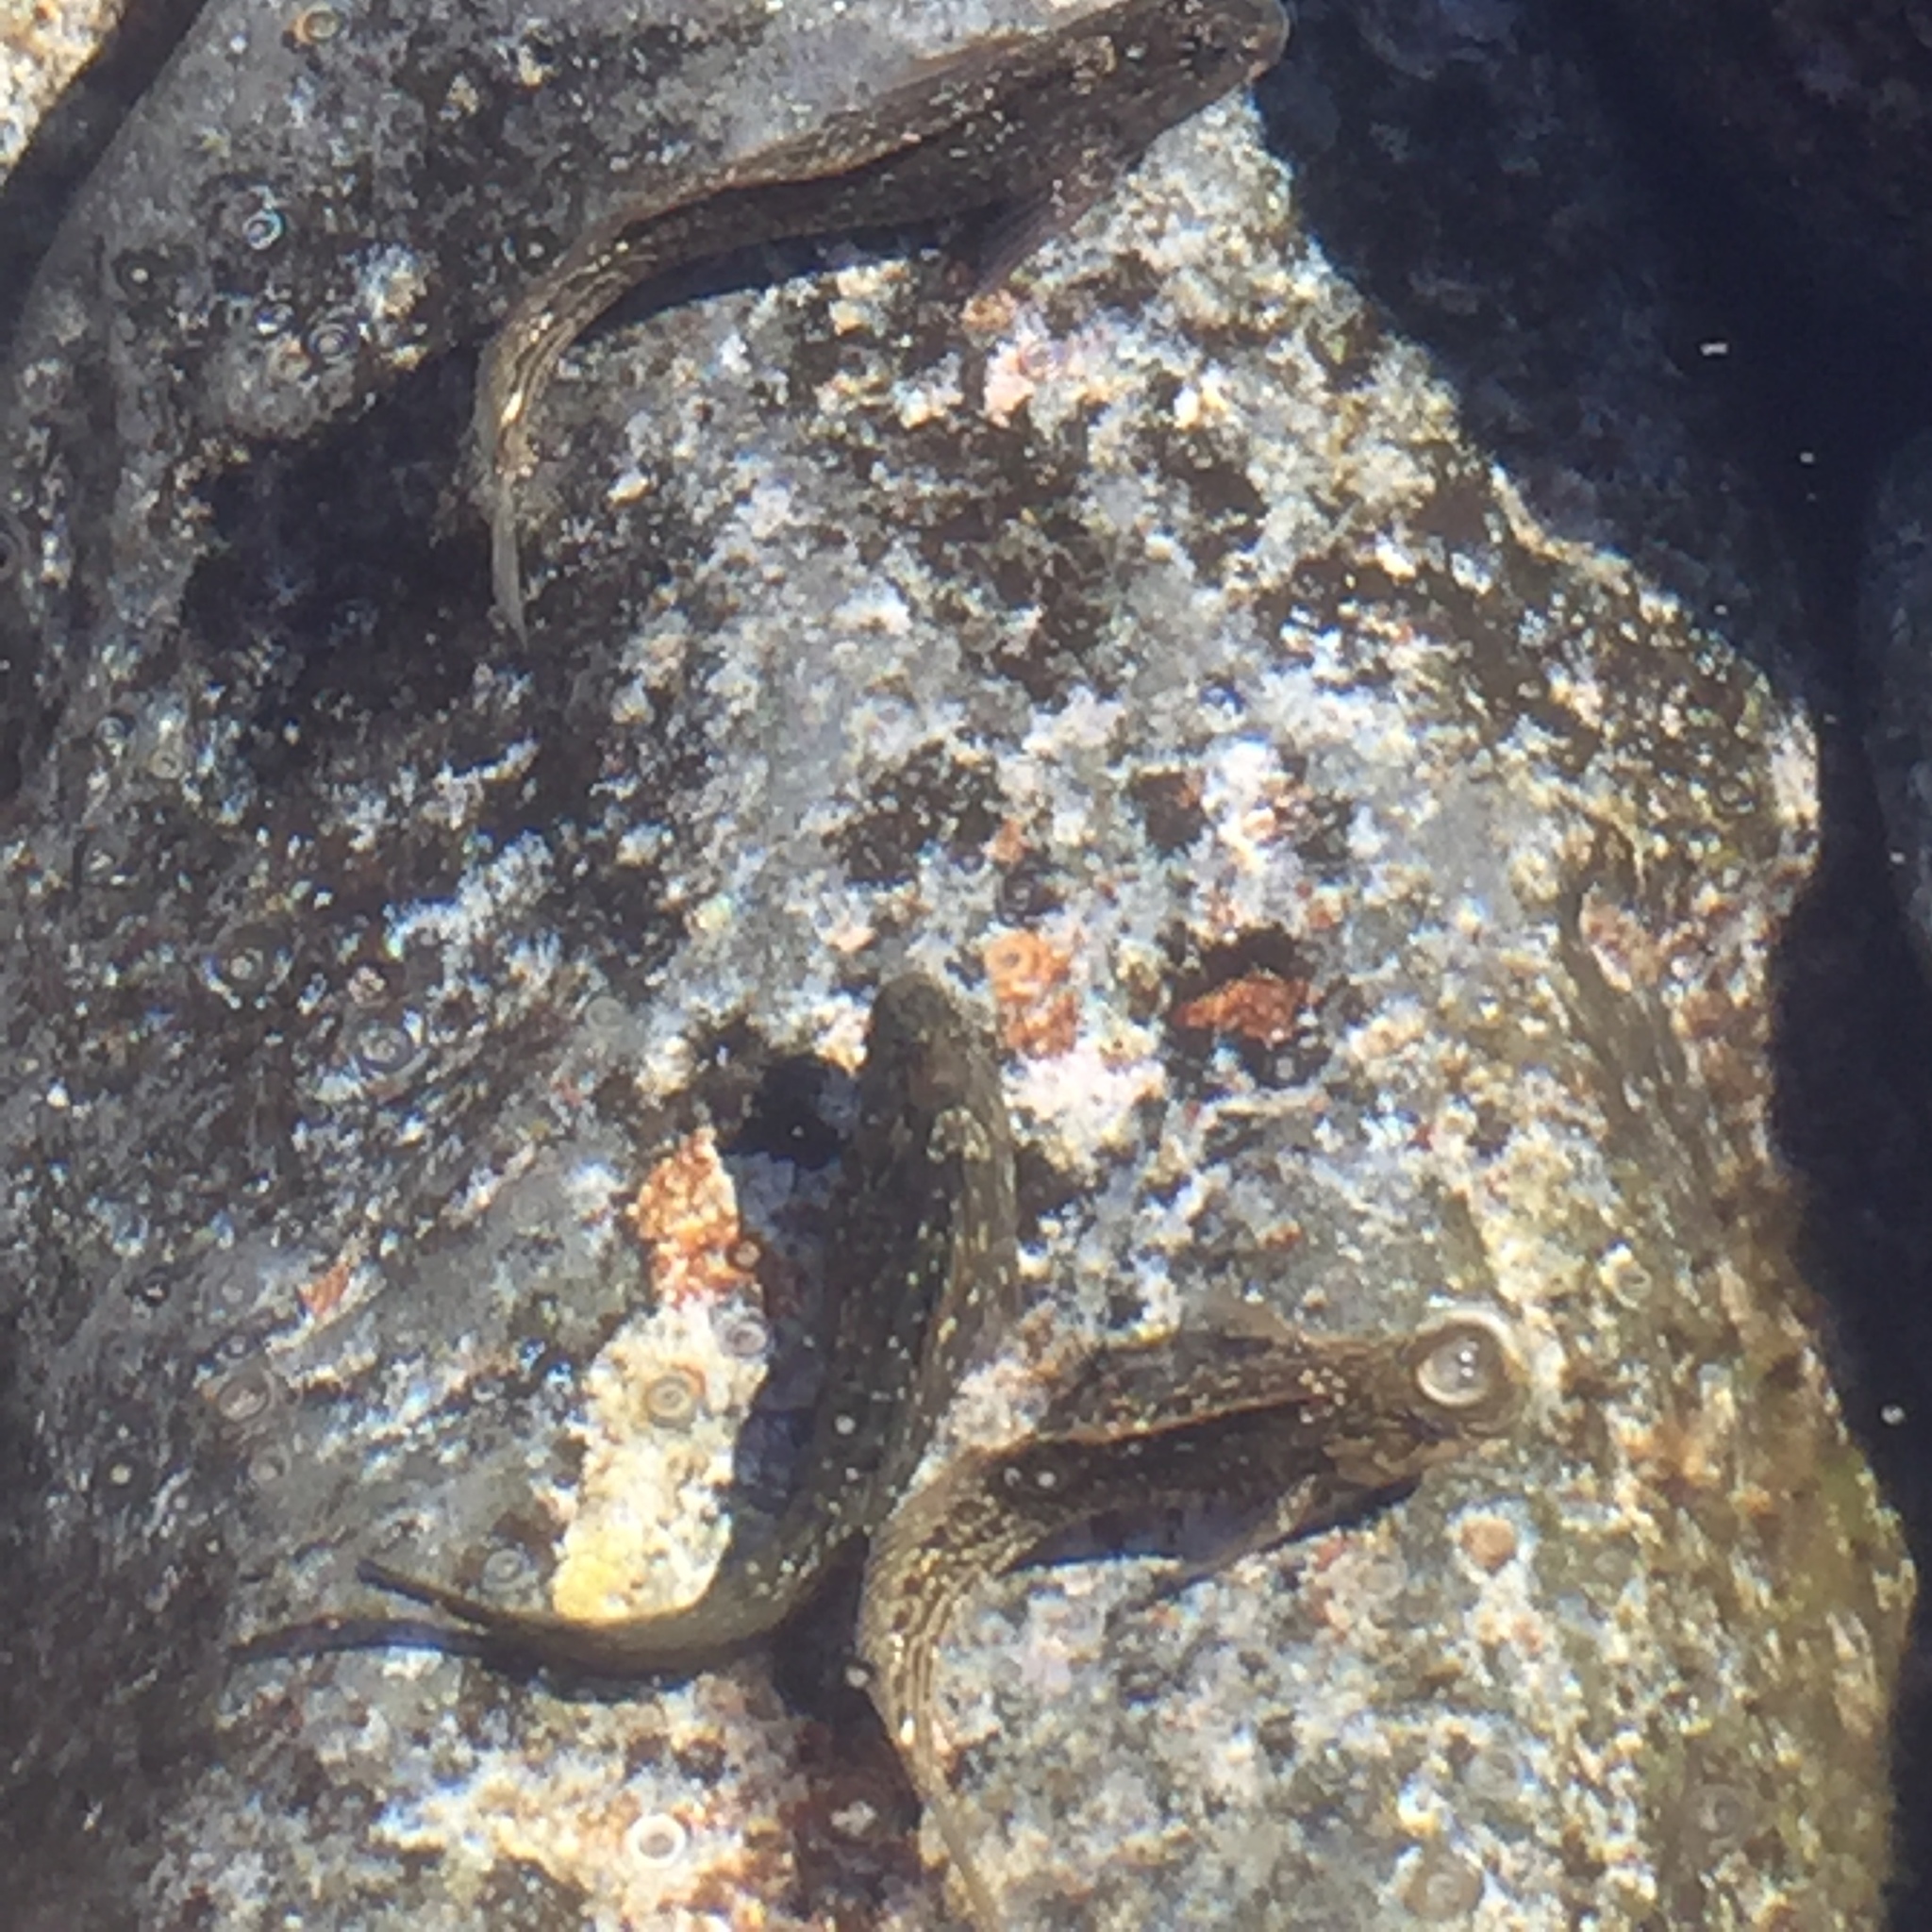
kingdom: Animalia
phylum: Chordata
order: Perciformes
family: Blenniidae
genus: Parablennius
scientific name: Parablennius parvicornis
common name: Rock-pool blenny
